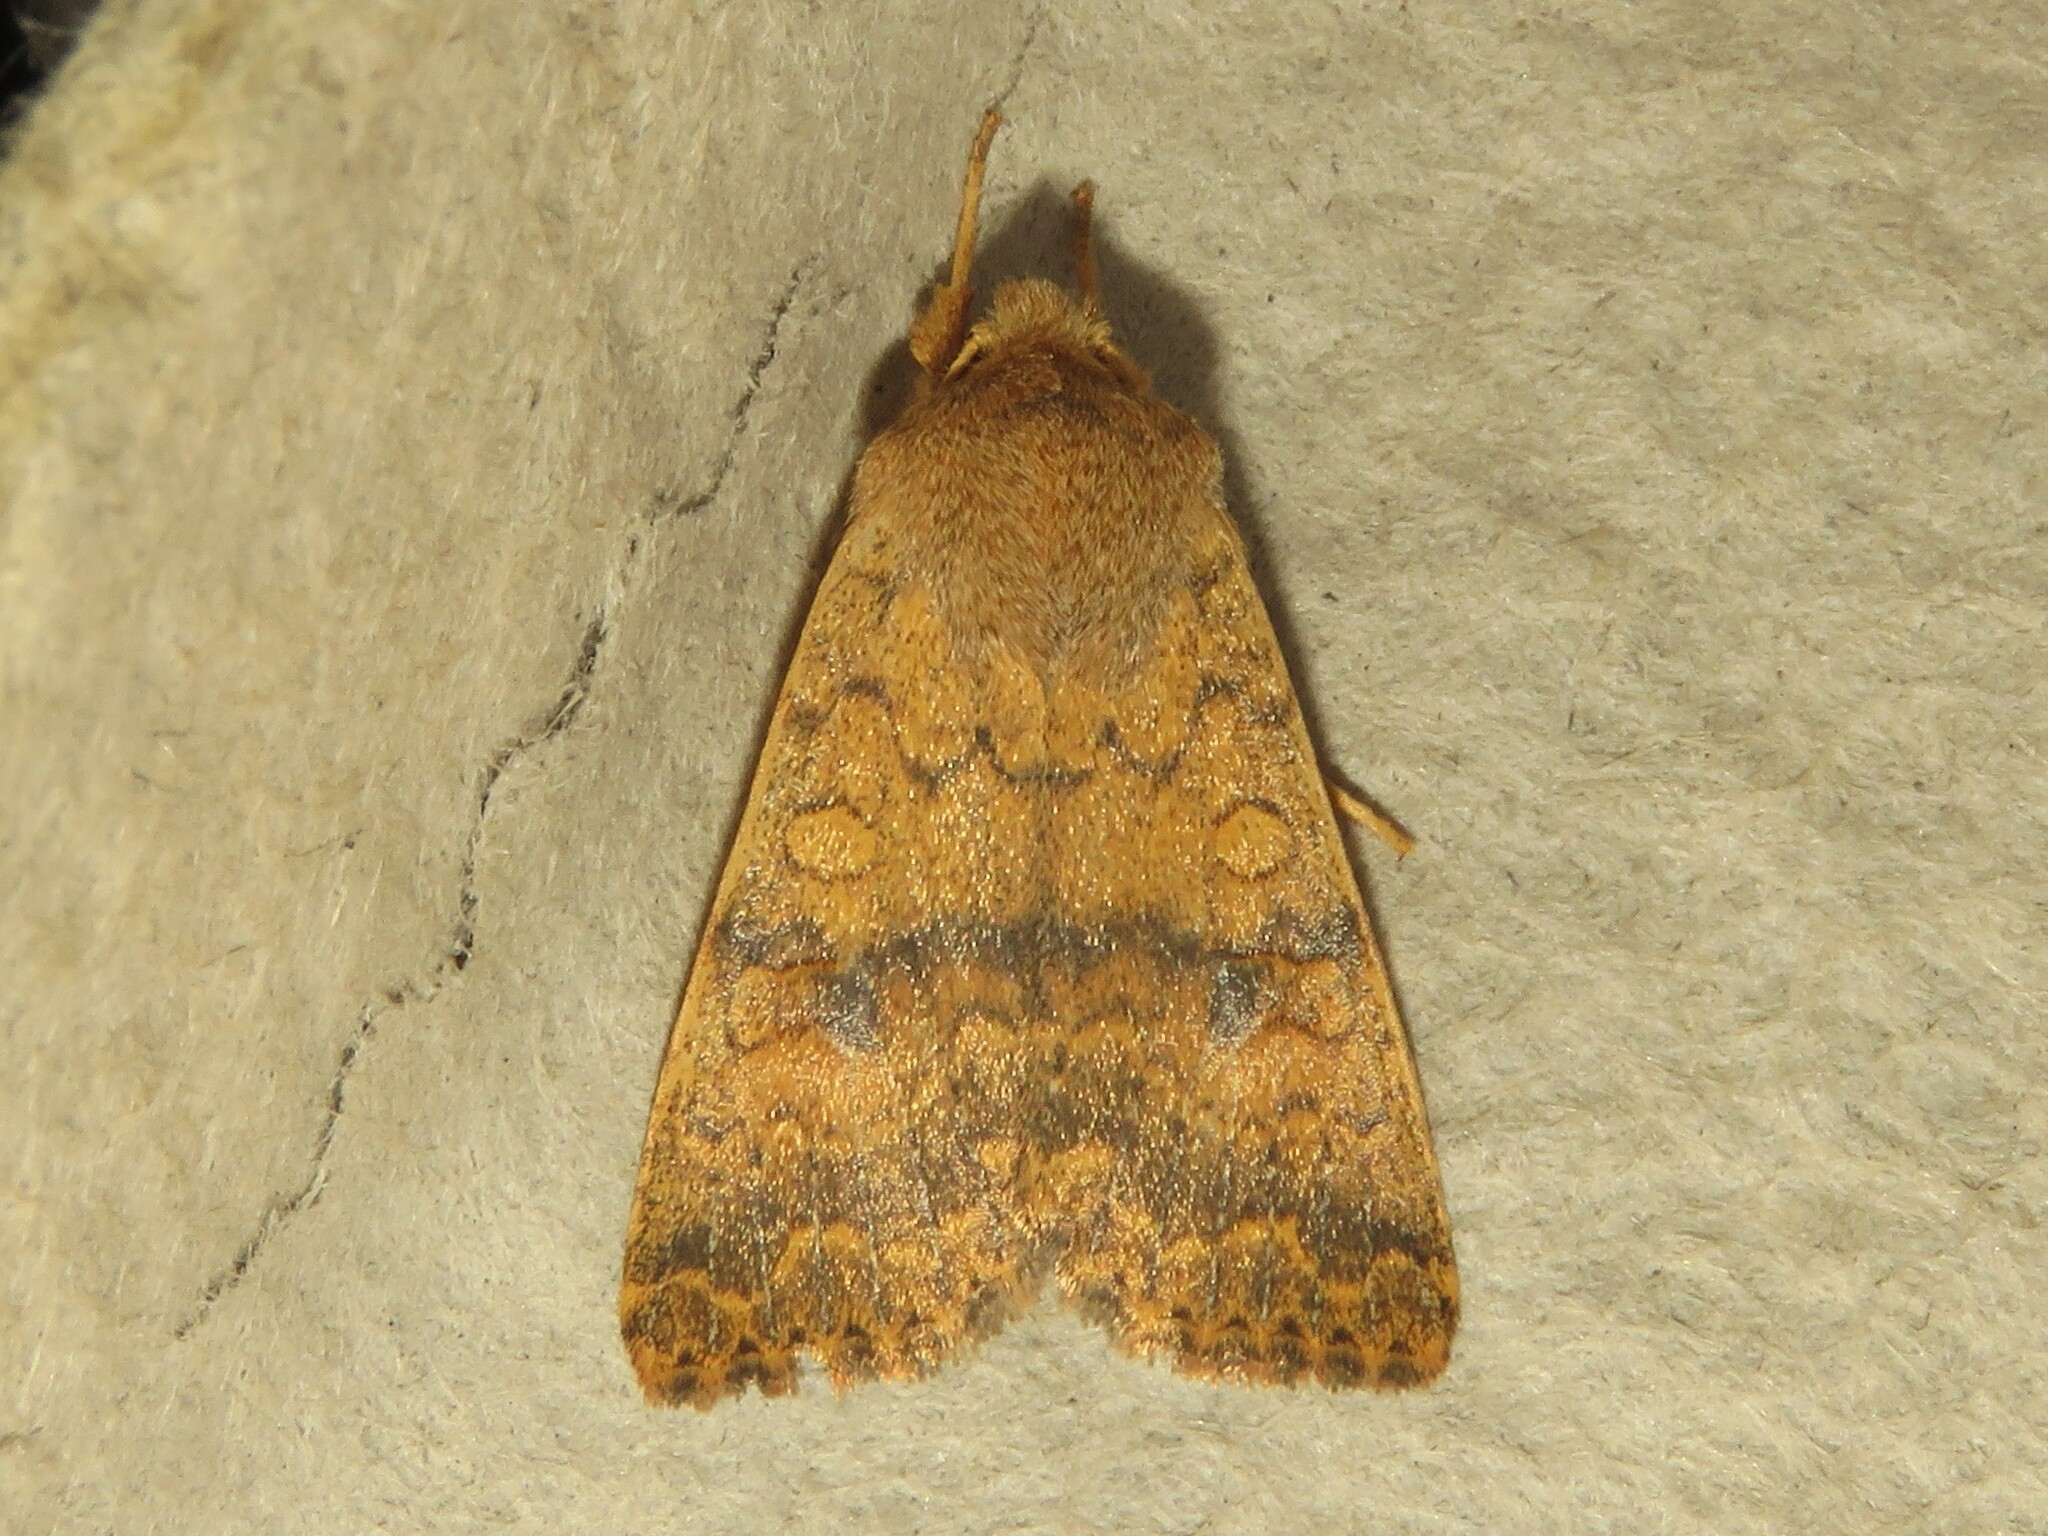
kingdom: Animalia
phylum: Arthropoda
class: Insecta
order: Lepidoptera
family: Noctuidae
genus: Agrochola
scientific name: Agrochola bicolorago
